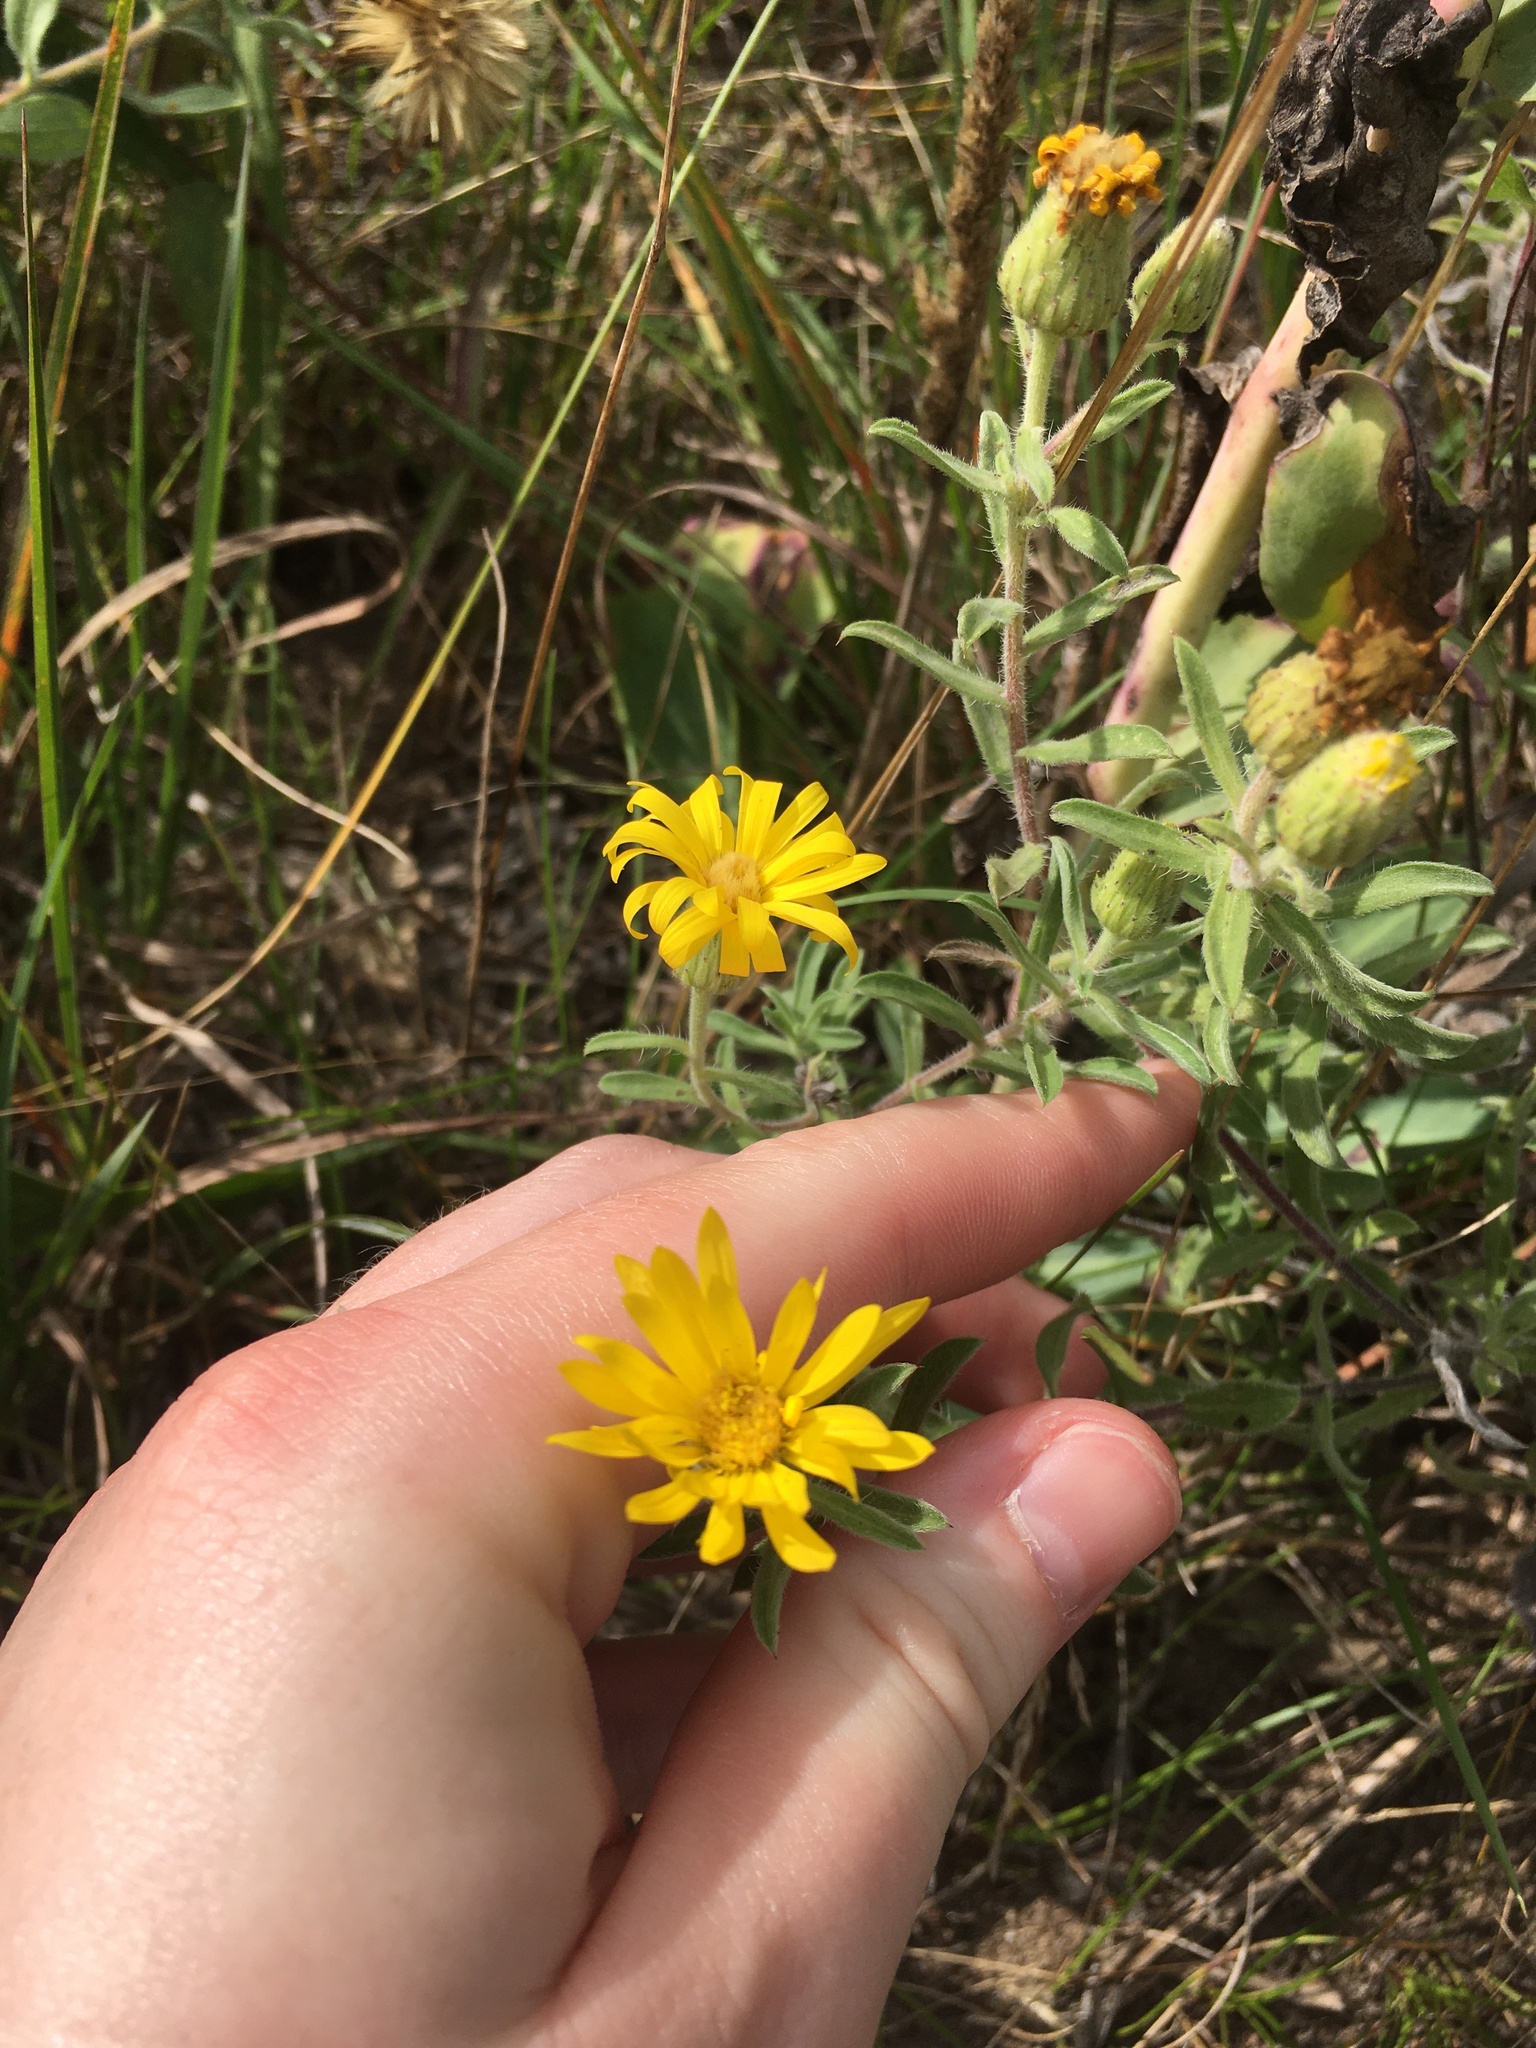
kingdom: Plantae
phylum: Tracheophyta
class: Magnoliopsida
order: Asterales
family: Asteraceae
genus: Heterotheca
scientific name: Heterotheca villosa
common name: Hairy false goldenaster
